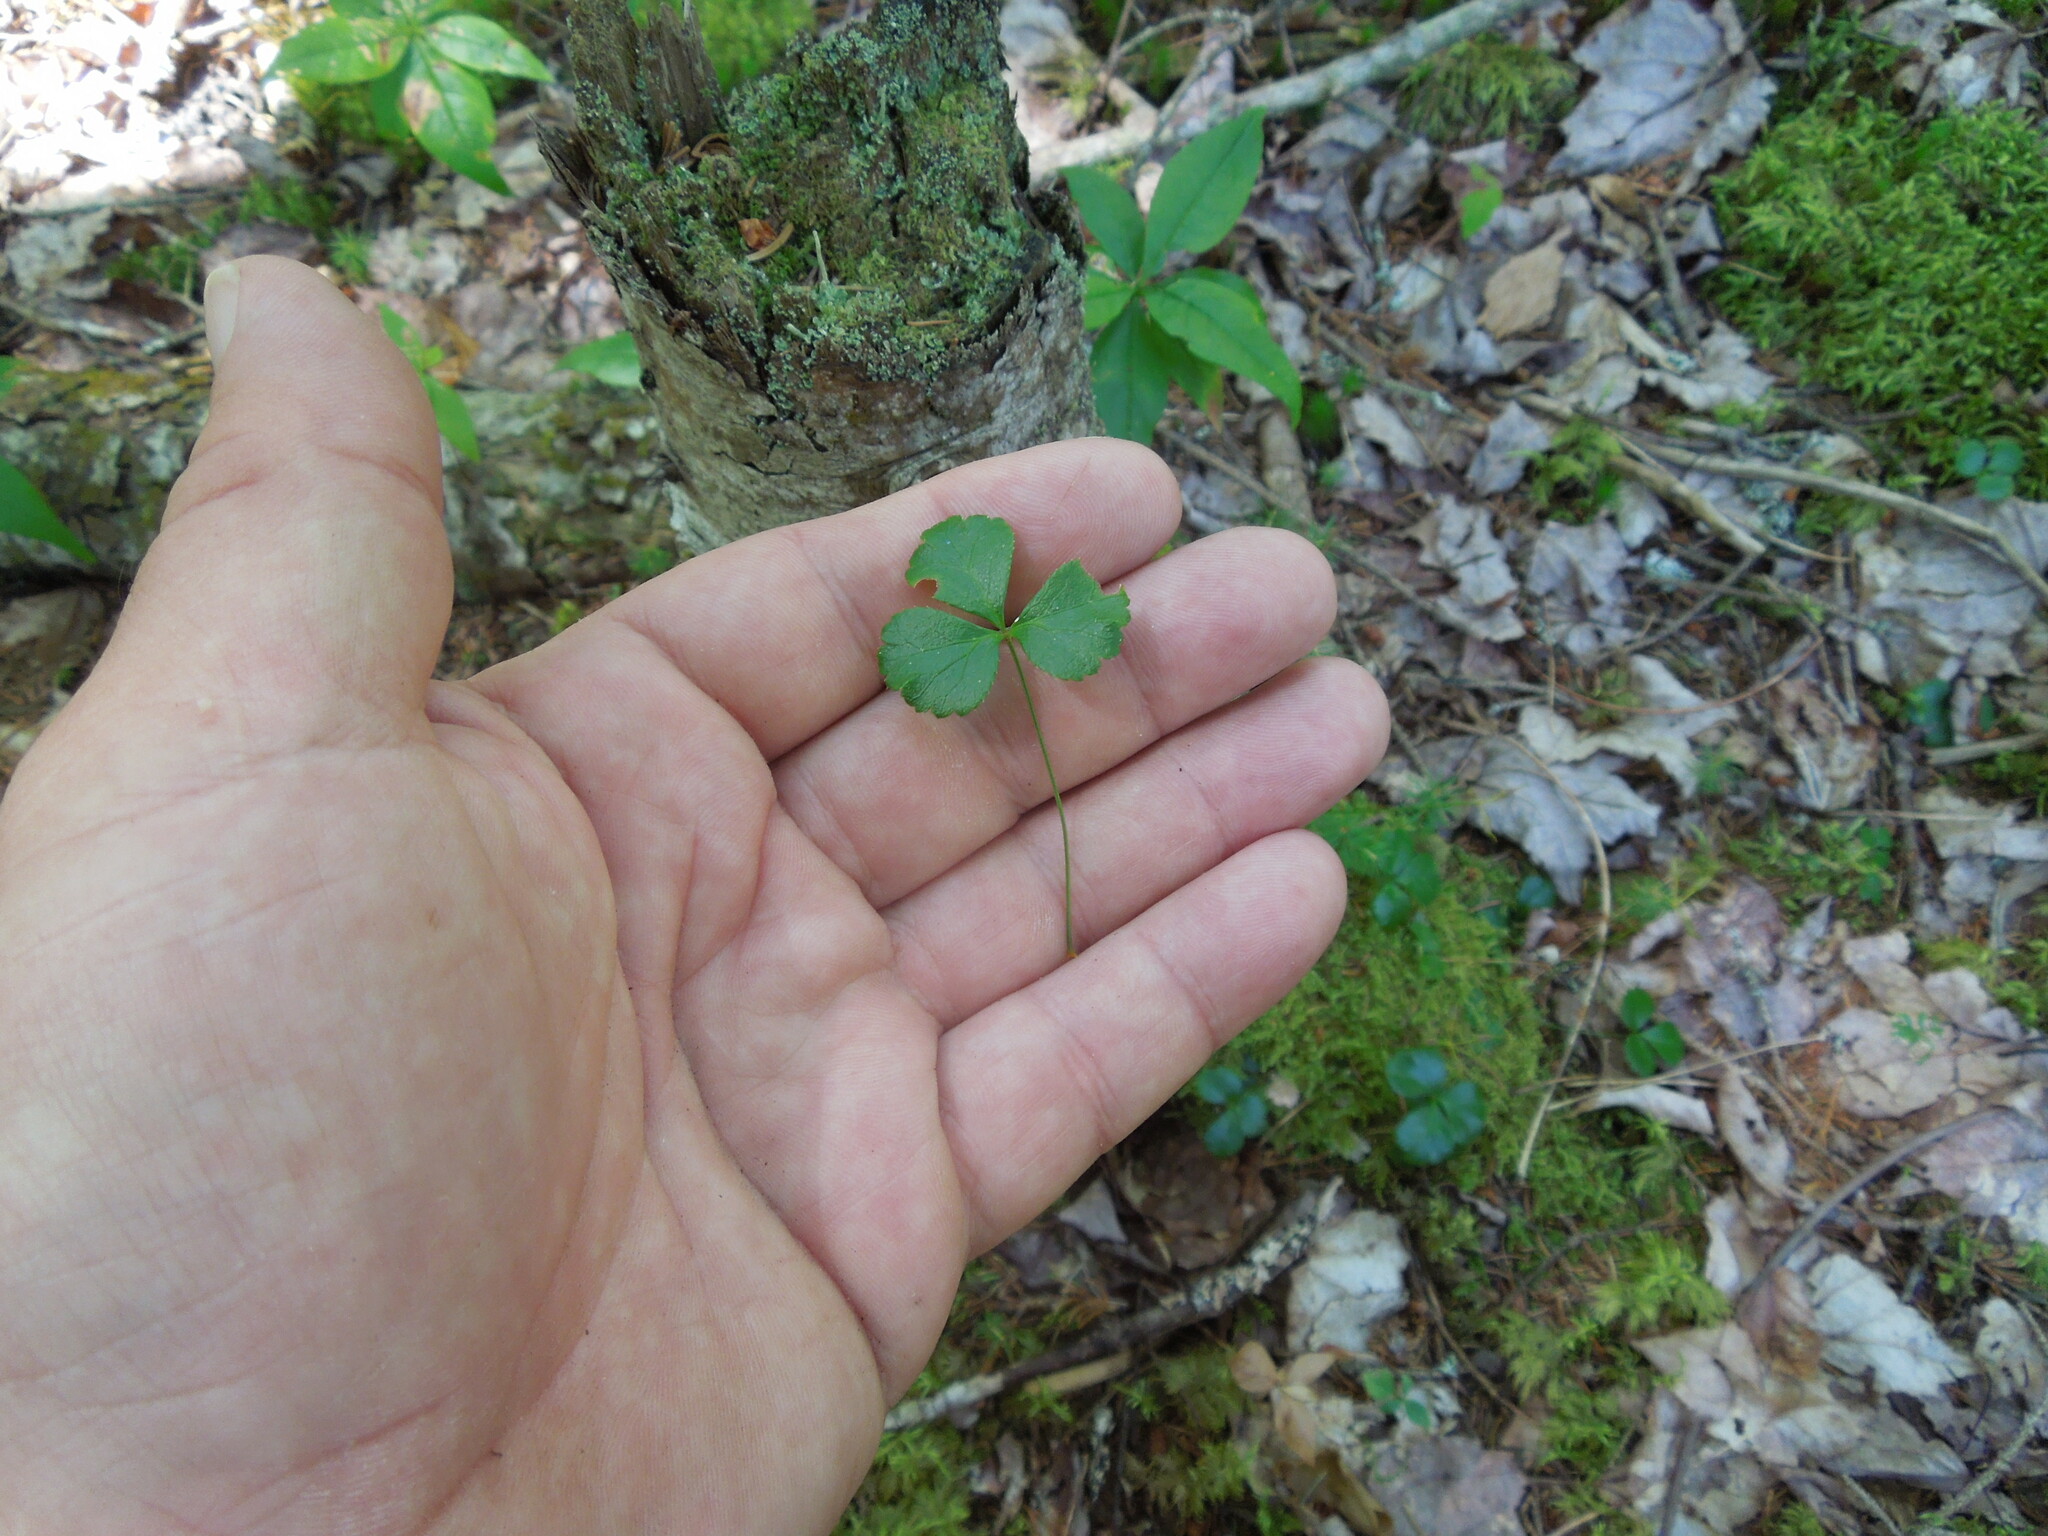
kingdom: Plantae
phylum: Tracheophyta
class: Magnoliopsida
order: Ranunculales
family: Ranunculaceae
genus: Coptis
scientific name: Coptis trifolia
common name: Canker-root
